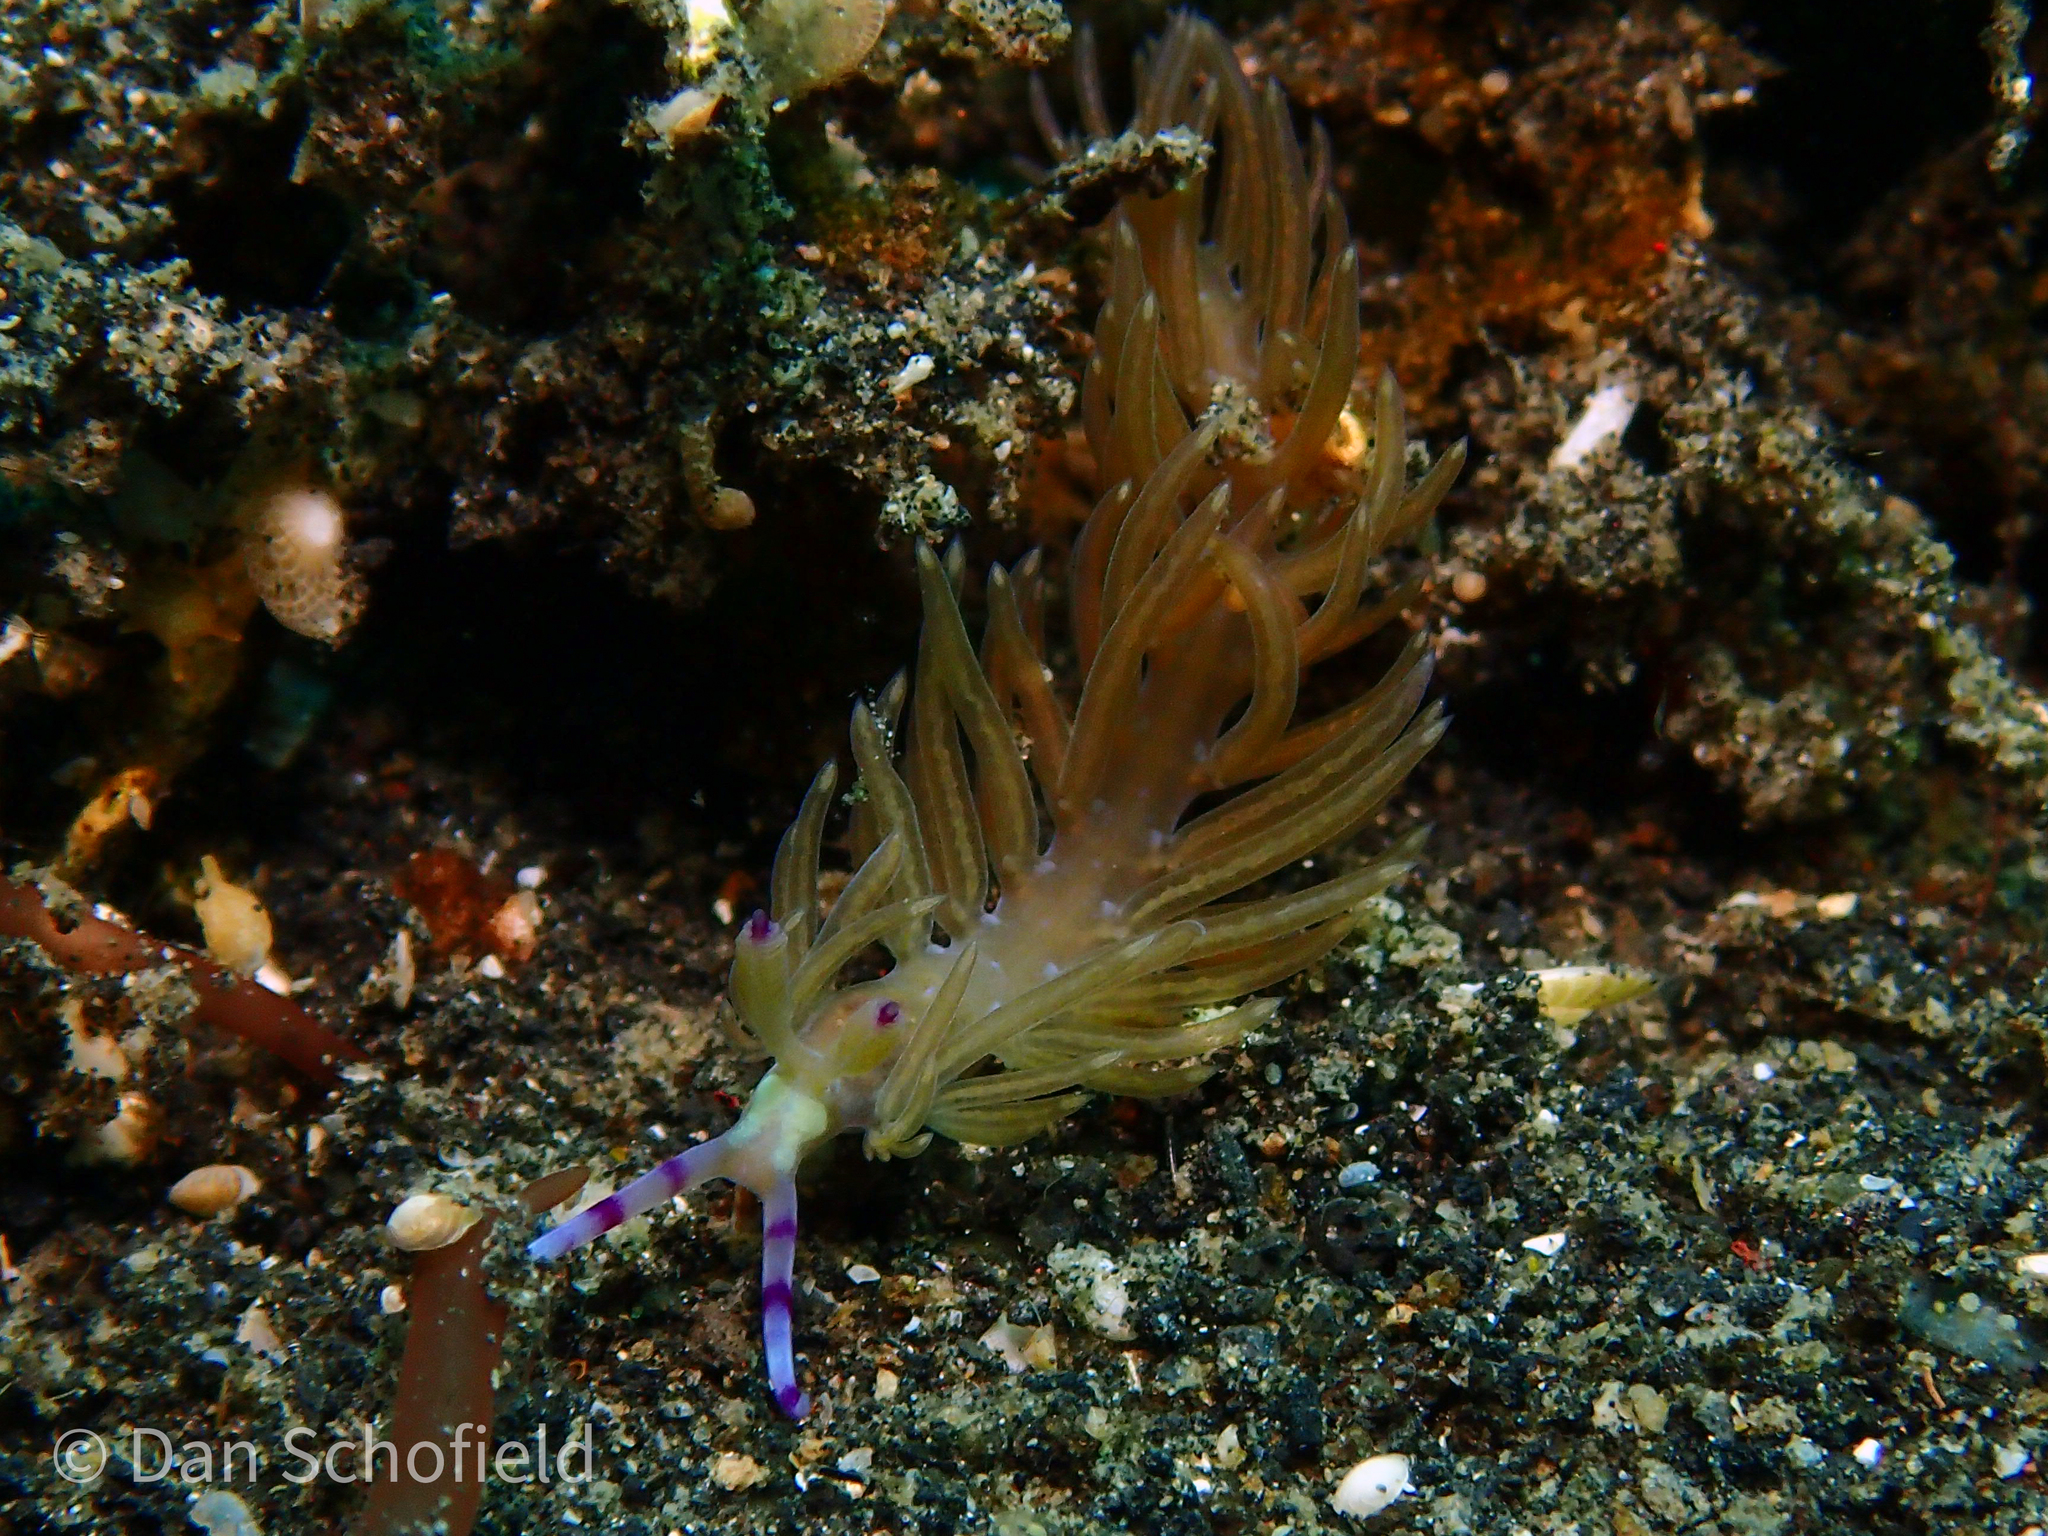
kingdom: Animalia
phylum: Mollusca
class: Gastropoda
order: Nudibranchia
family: Facelinidae
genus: Pteraeolidia
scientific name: Pteraeolidia semperi
